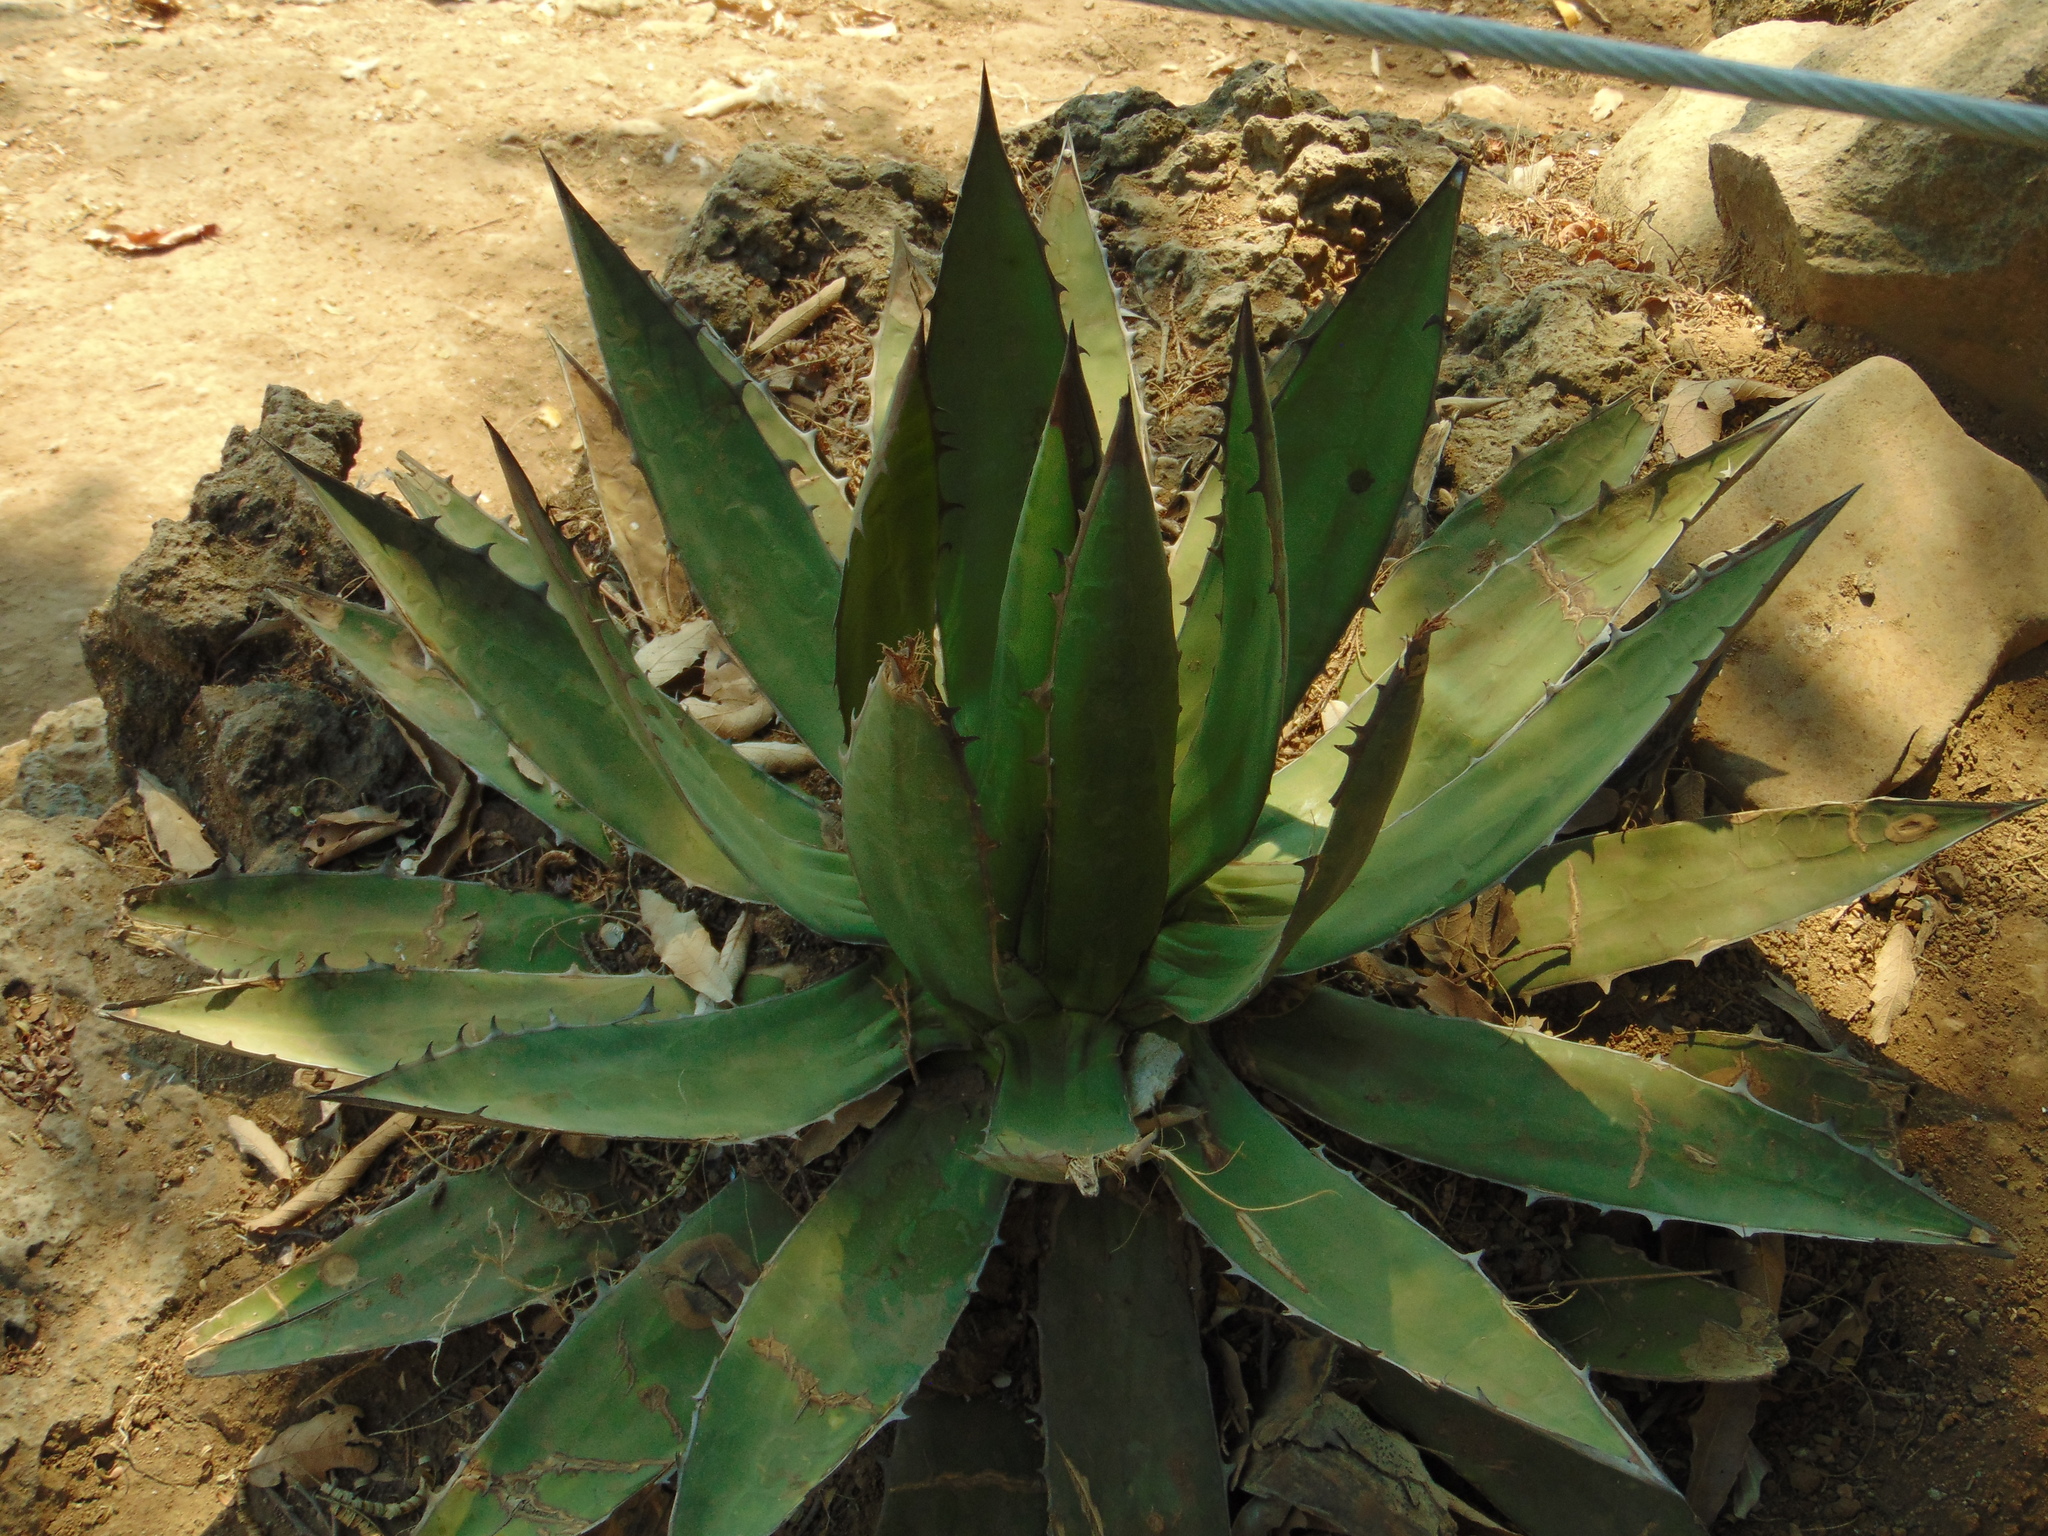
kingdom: Plantae
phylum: Tracheophyta
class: Liliopsida
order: Asparagales
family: Asparagaceae
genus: Agave
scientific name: Agave horrida
